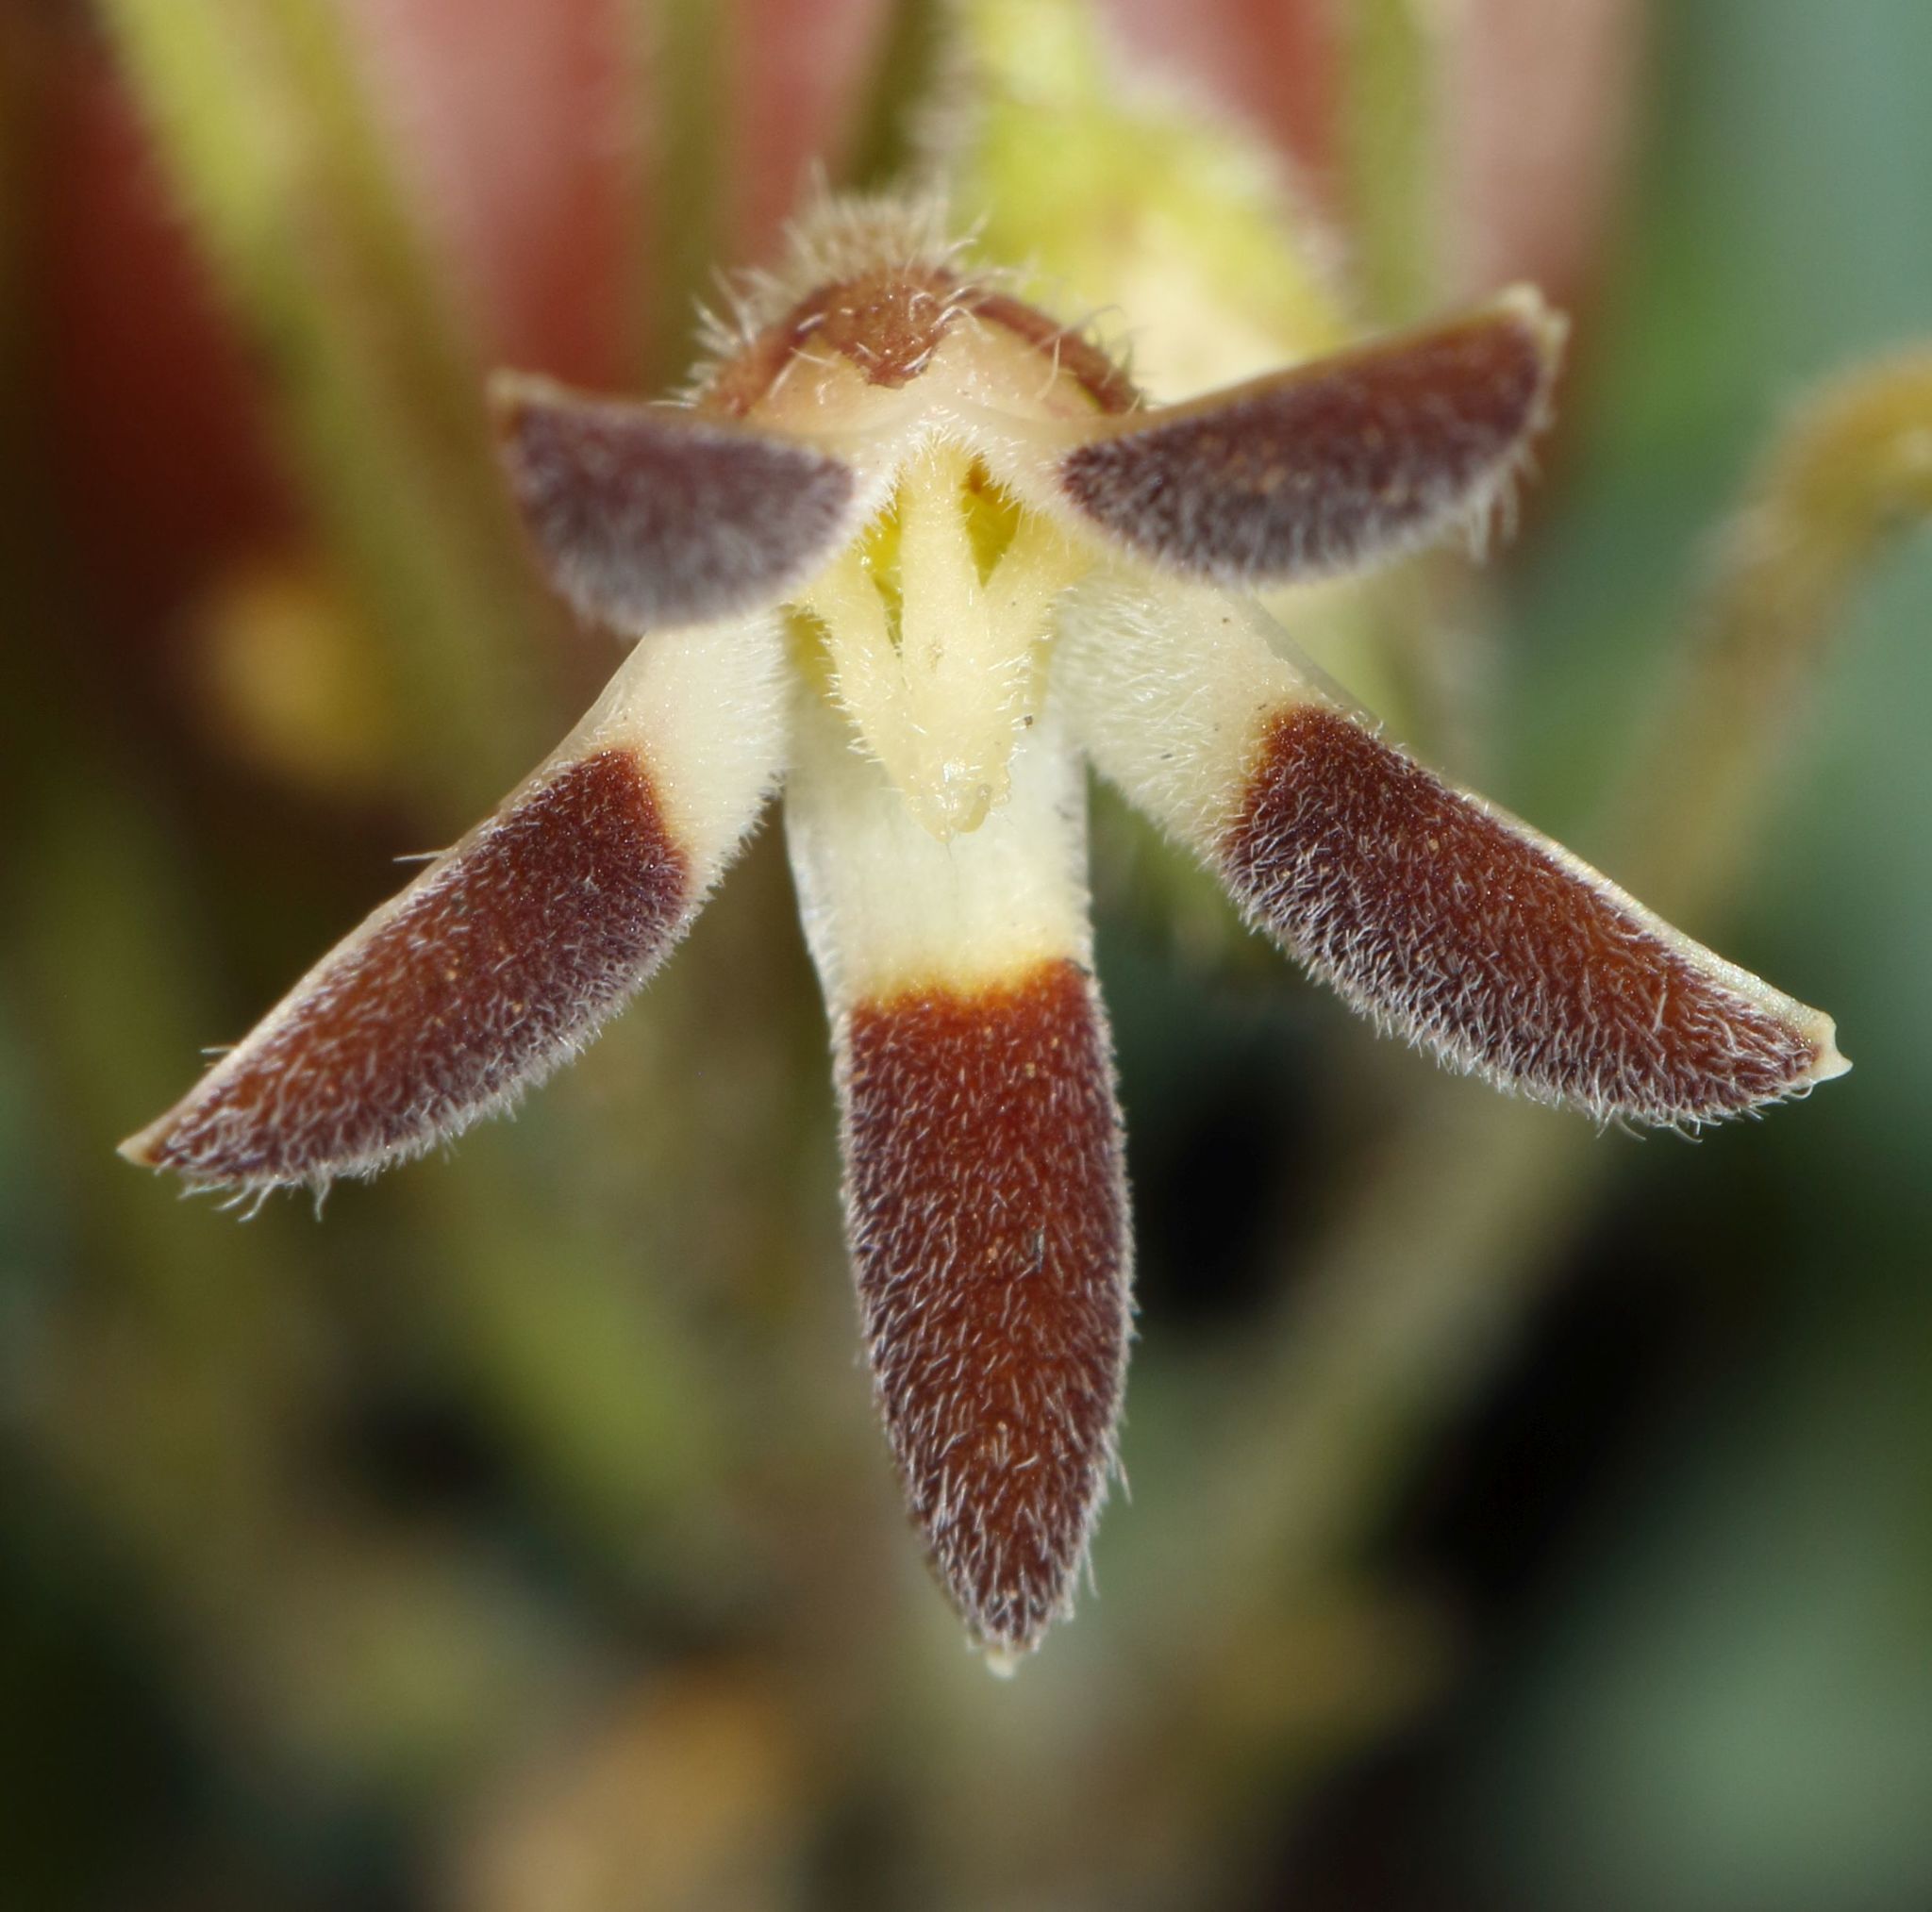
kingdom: Plantae
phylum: Tracheophyta
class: Magnoliopsida
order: Gentianales
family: Apocynaceae
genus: Anisotoma
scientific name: Anisotoma pedunculata
